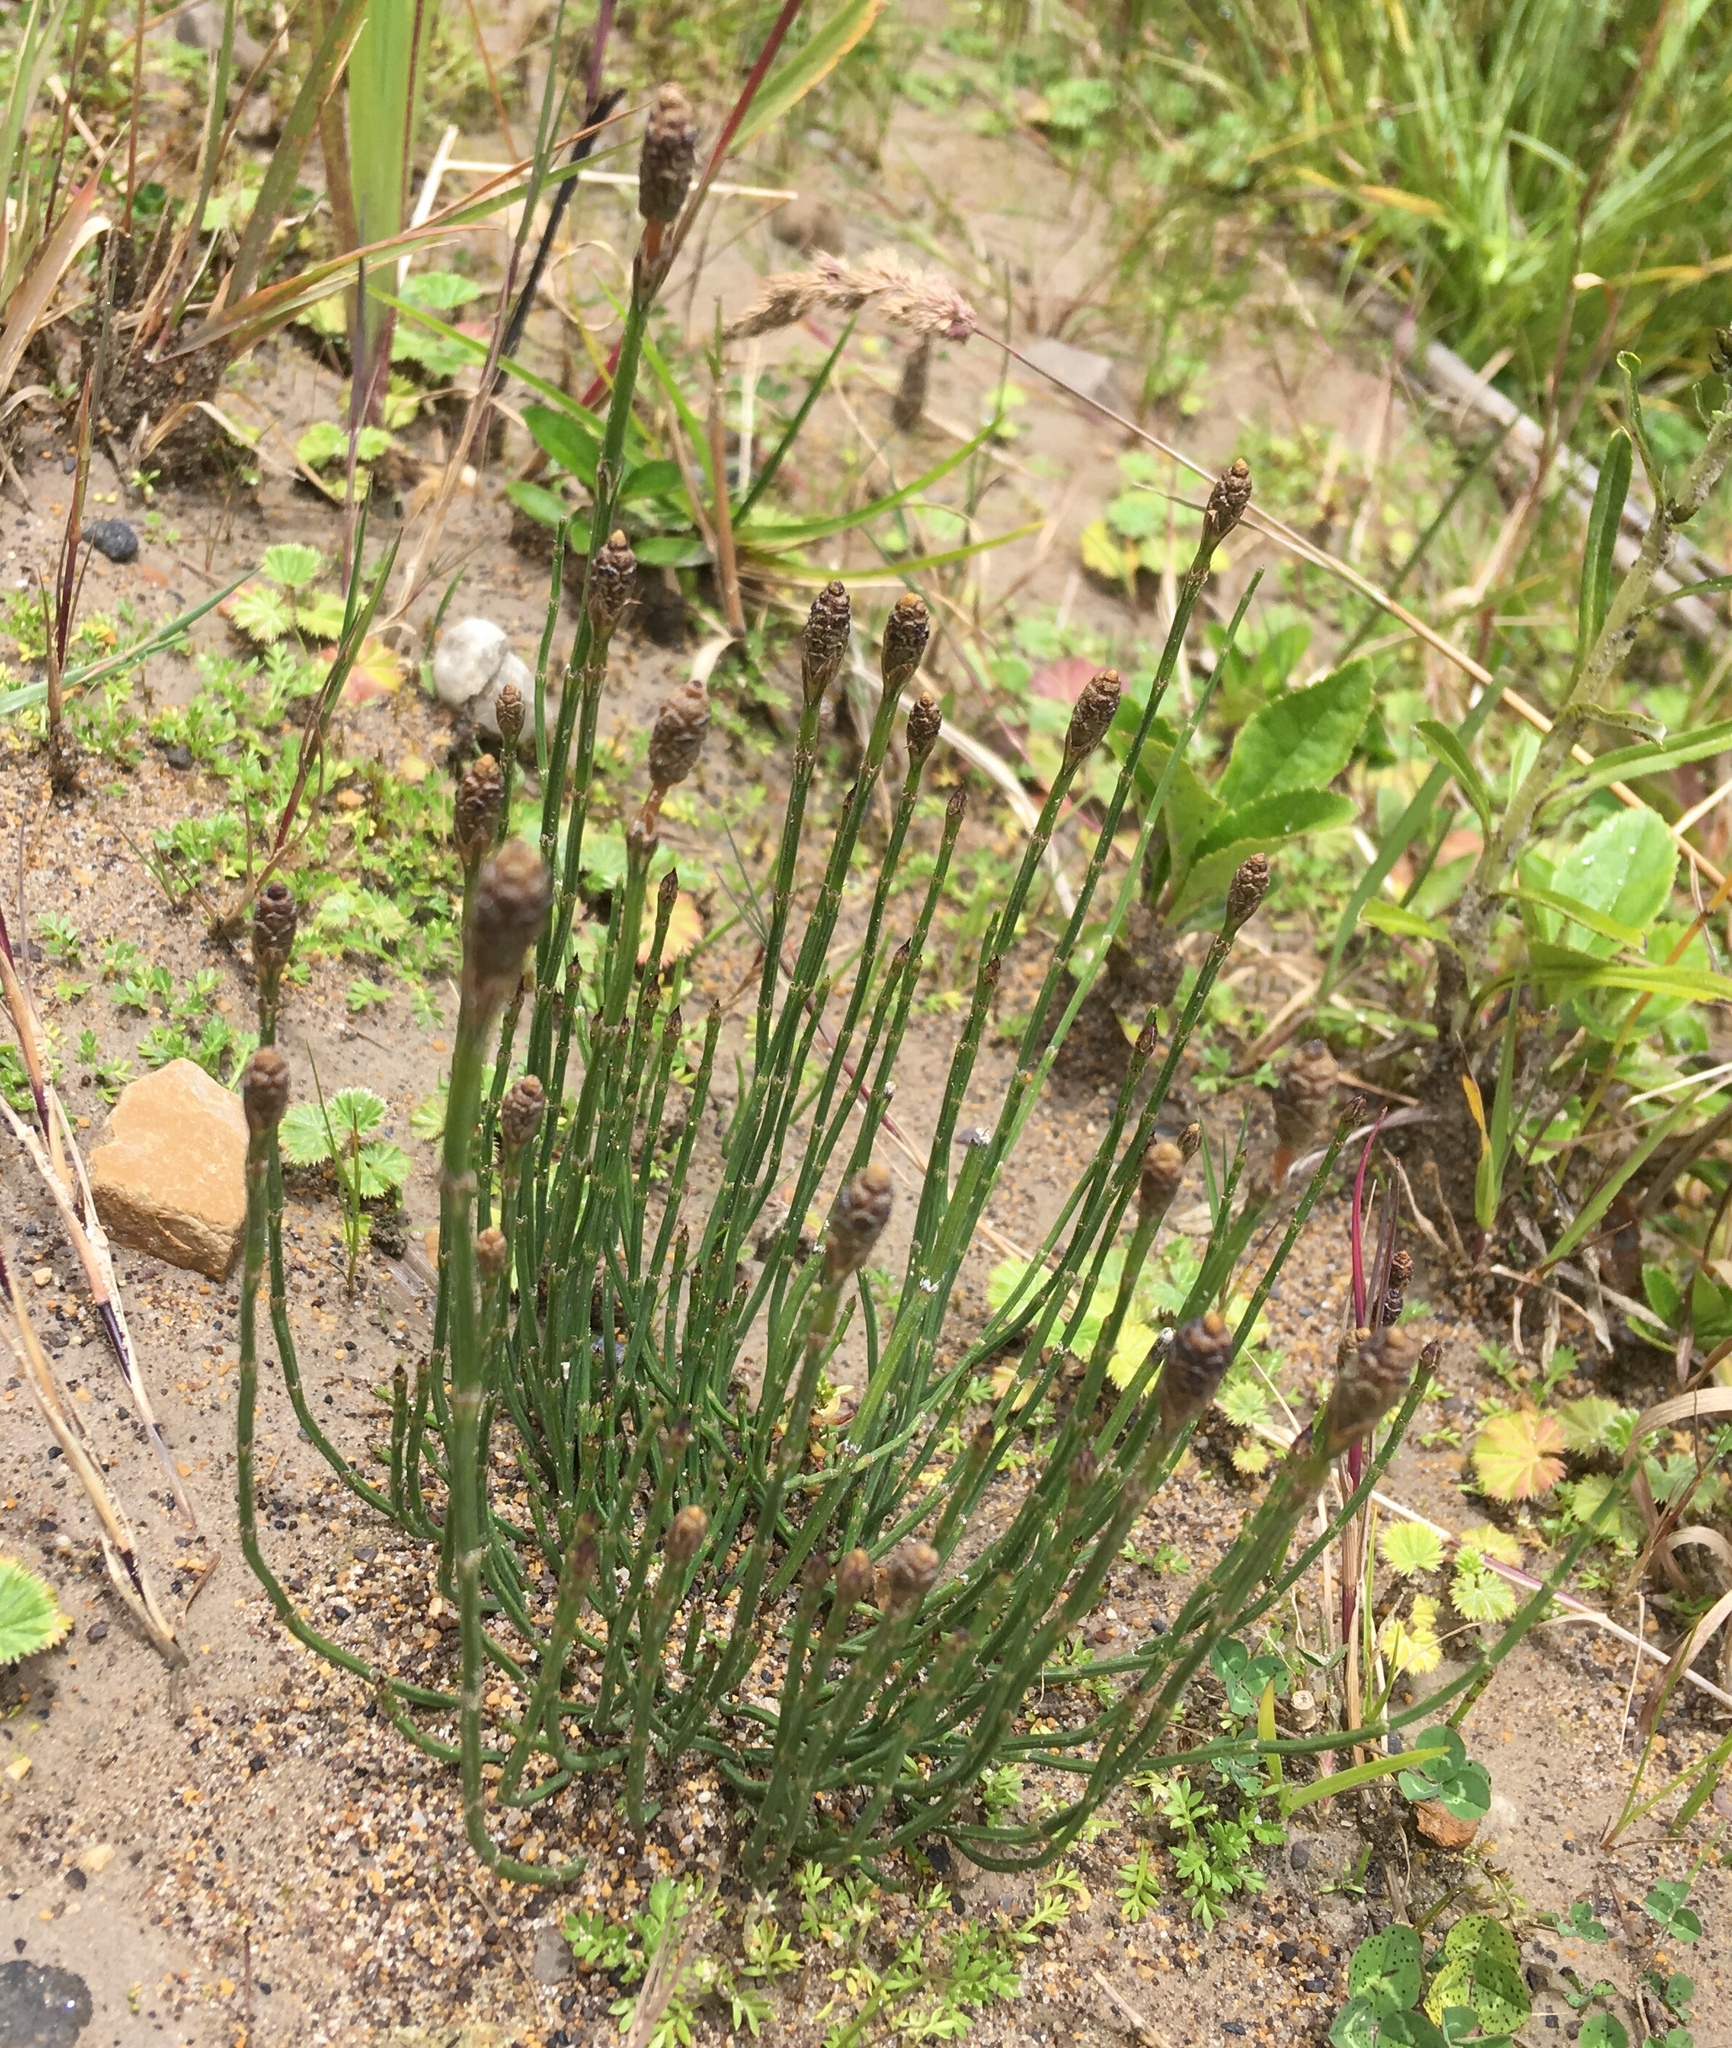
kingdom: Plantae
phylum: Tracheophyta
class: Polypodiopsida
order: Equisetales
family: Equisetaceae
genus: Equisetum
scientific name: Equisetum bogotense
